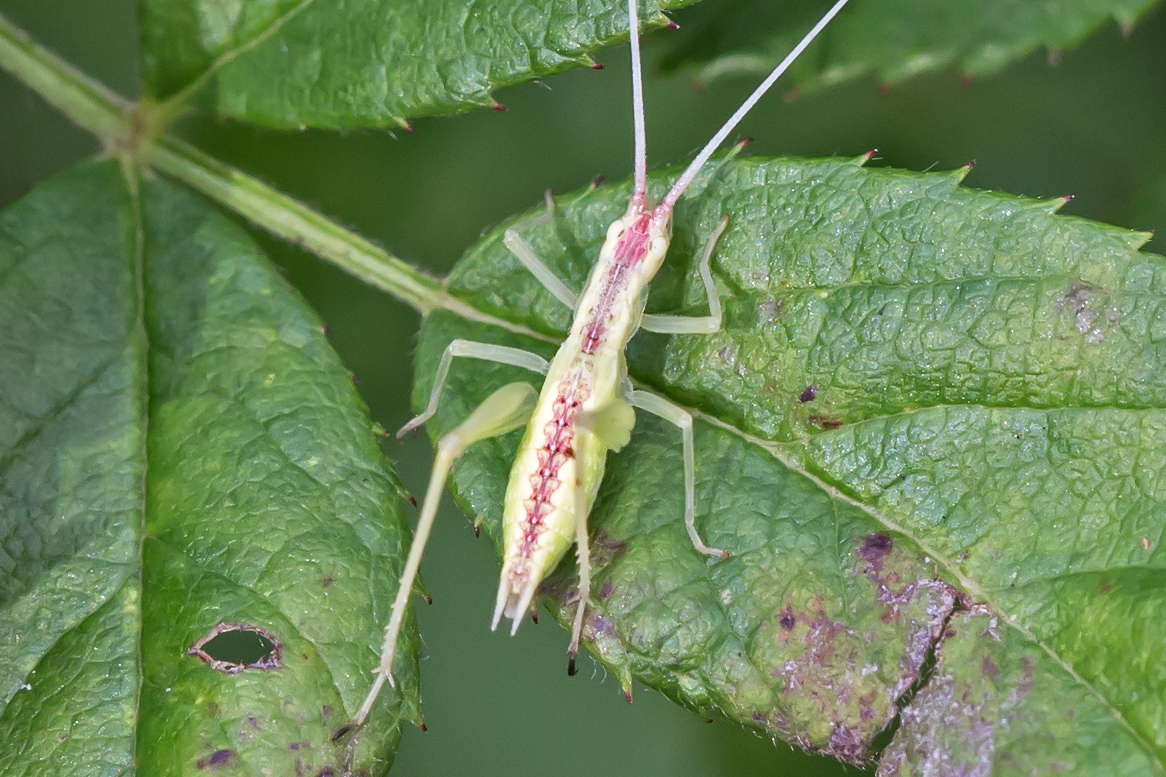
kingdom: Animalia
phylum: Arthropoda
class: Insecta
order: Orthoptera
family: Gryllidae
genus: Oecanthus
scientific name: Oecanthus latipennis
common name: Broad-winged tree cricket
